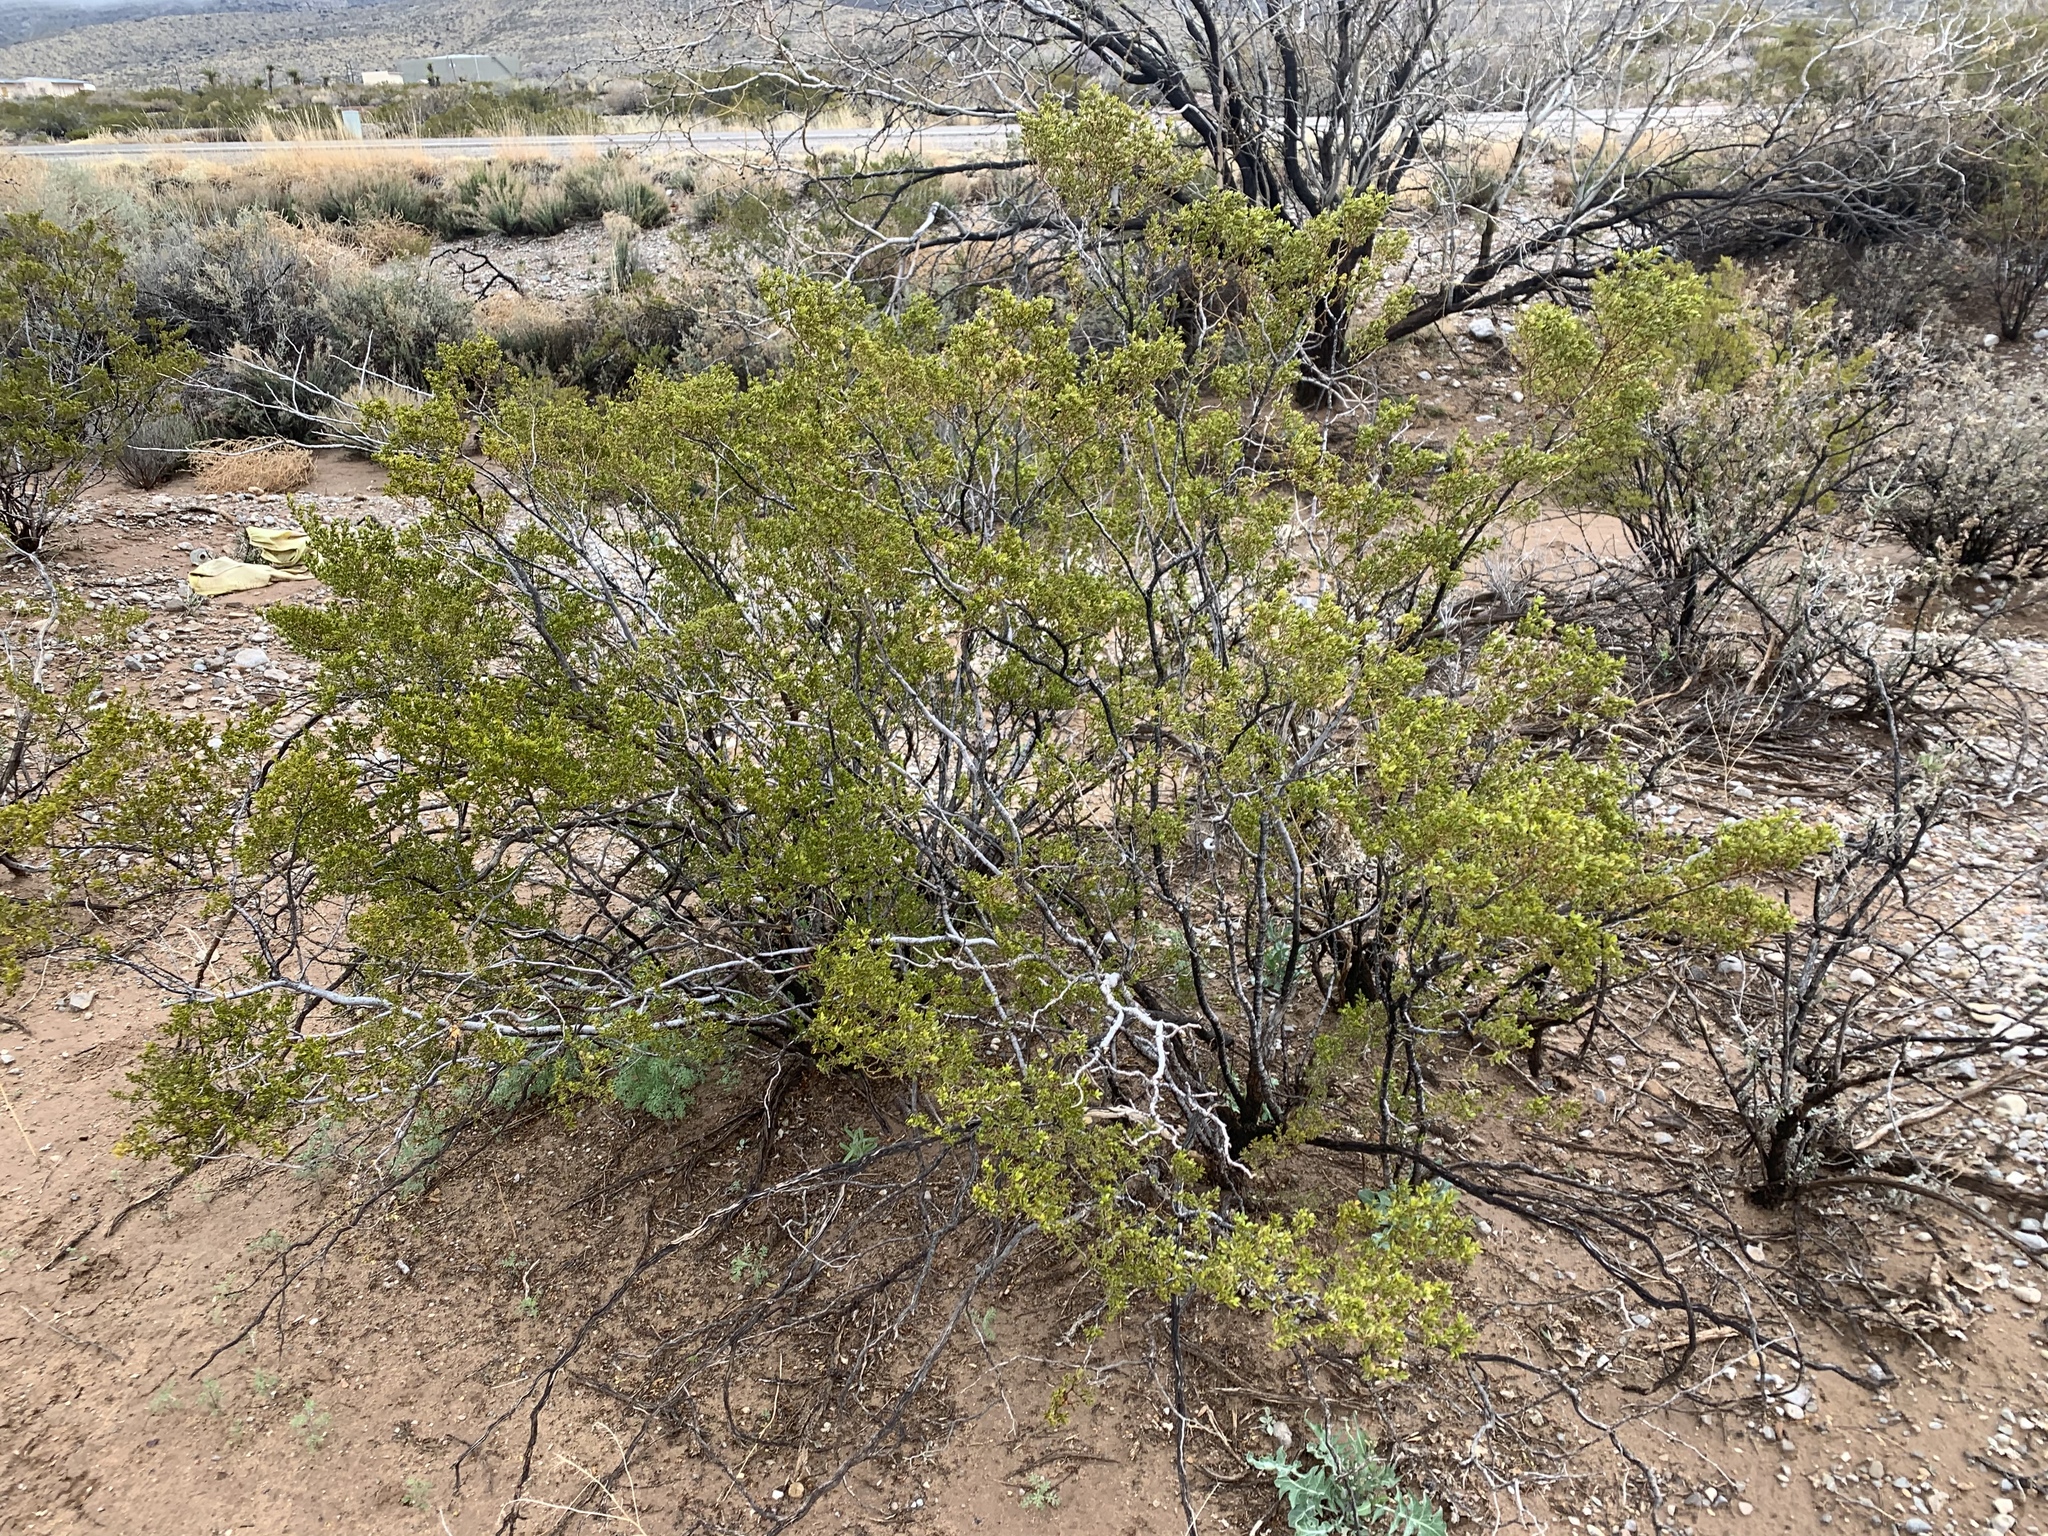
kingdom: Plantae
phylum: Tracheophyta
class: Magnoliopsida
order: Zygophyllales
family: Zygophyllaceae
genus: Larrea
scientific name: Larrea tridentata
